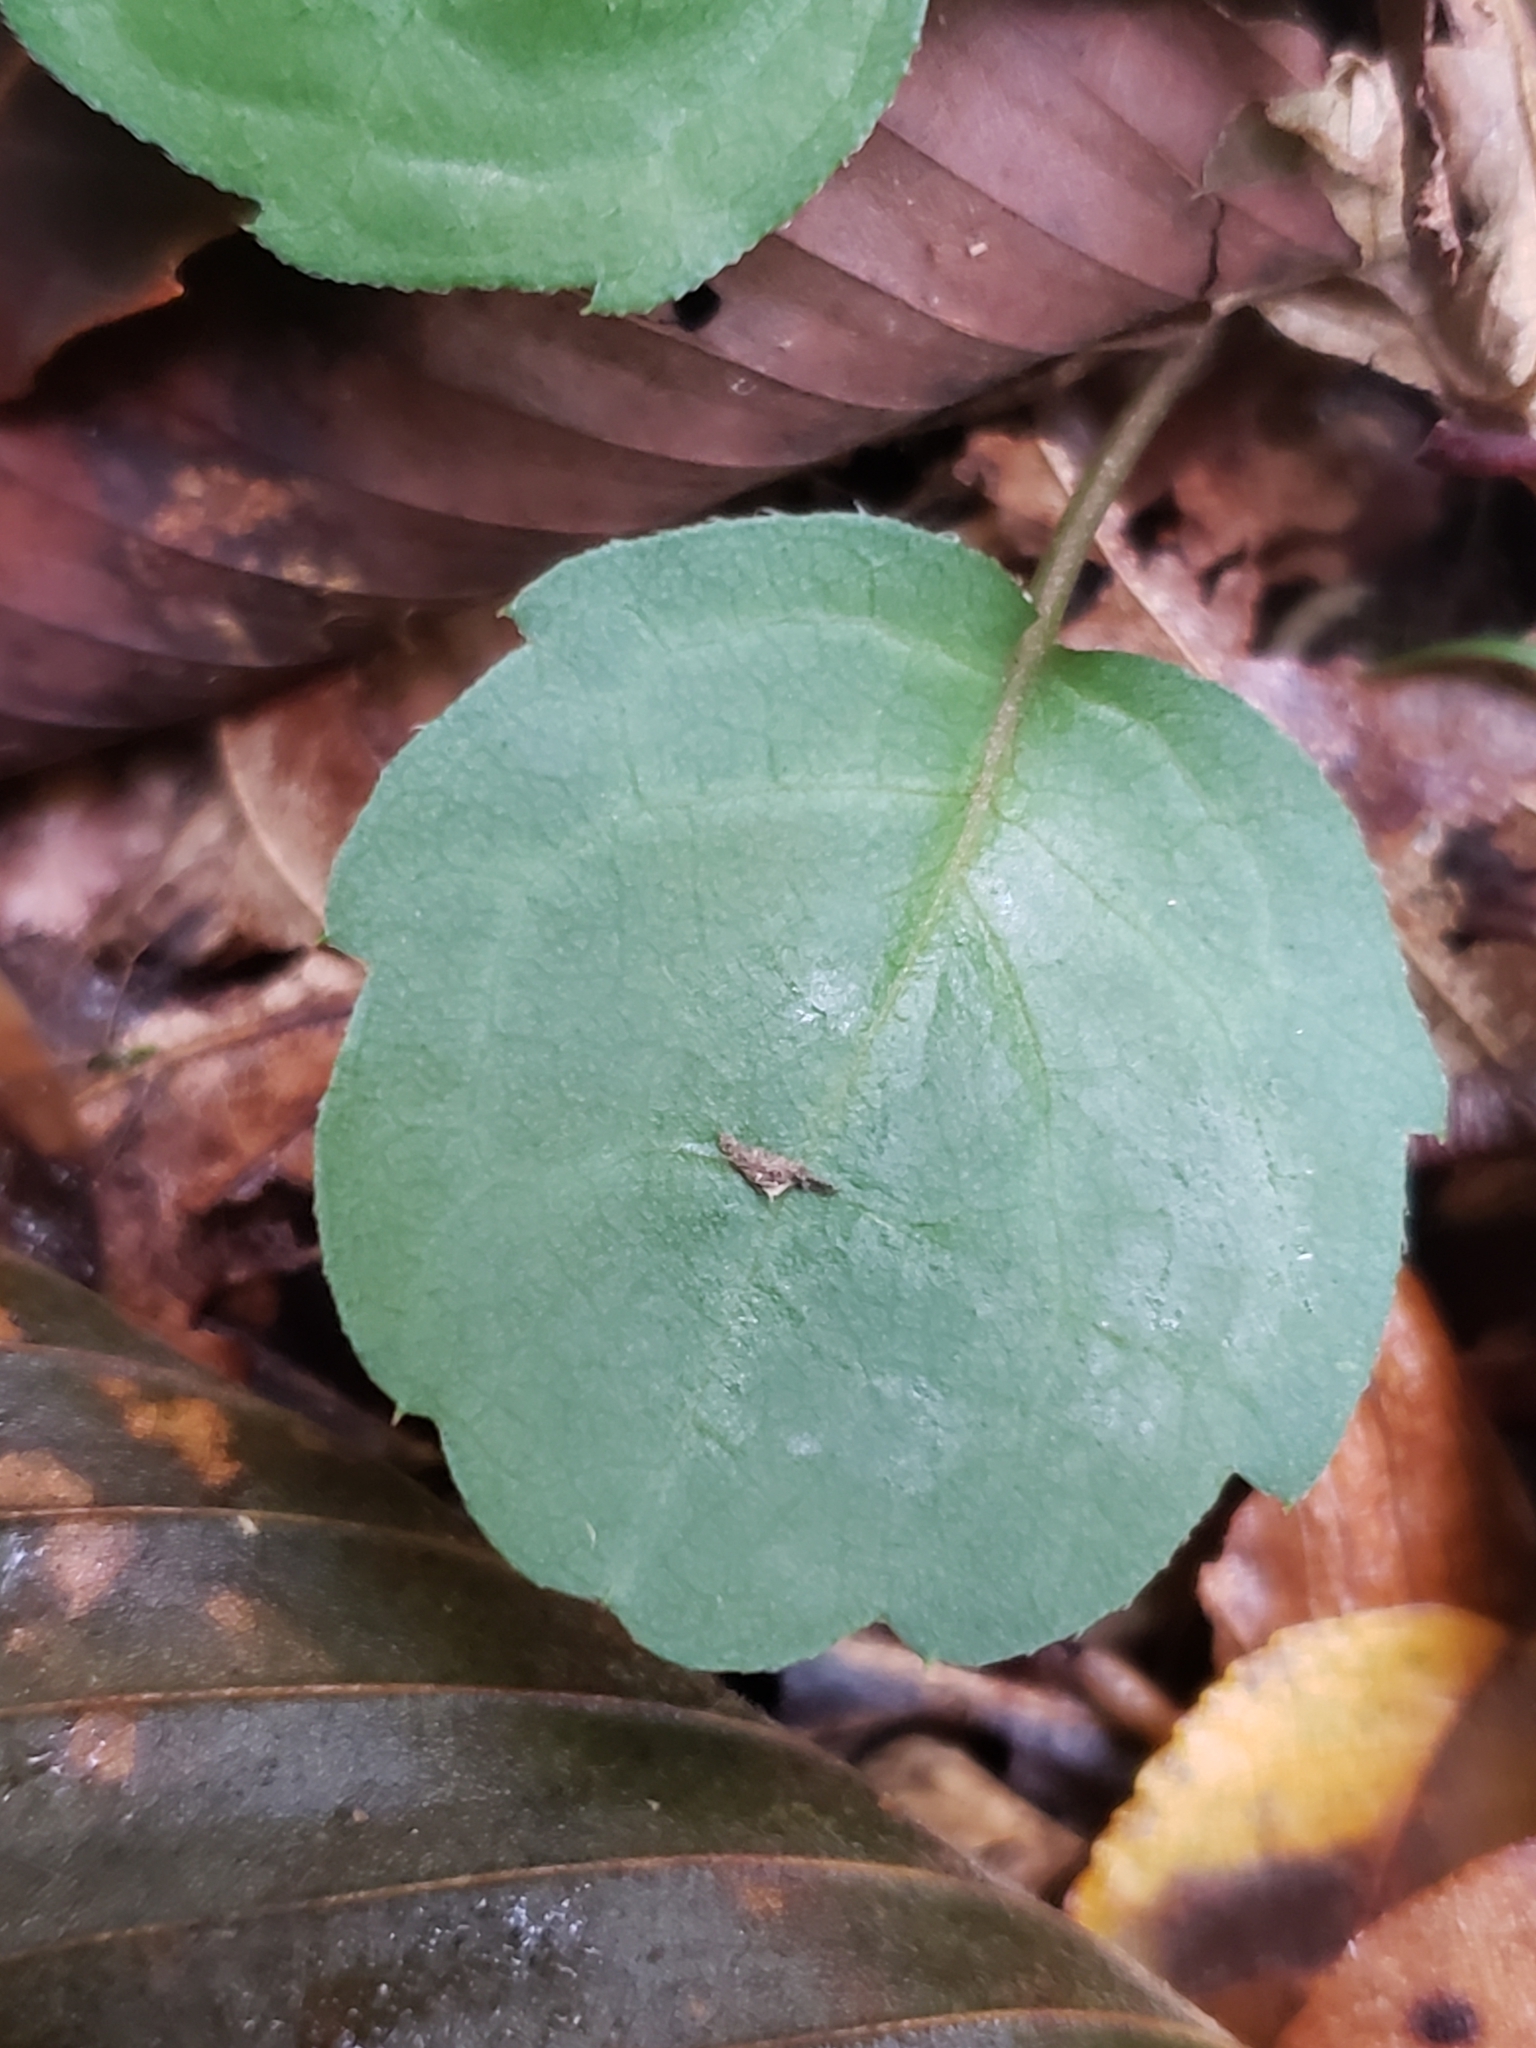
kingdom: Fungi
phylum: Ascomycota
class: Leotiomycetes
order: Helotiales
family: Erysiphaceae
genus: Golovinomyces
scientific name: Golovinomyces asterum
